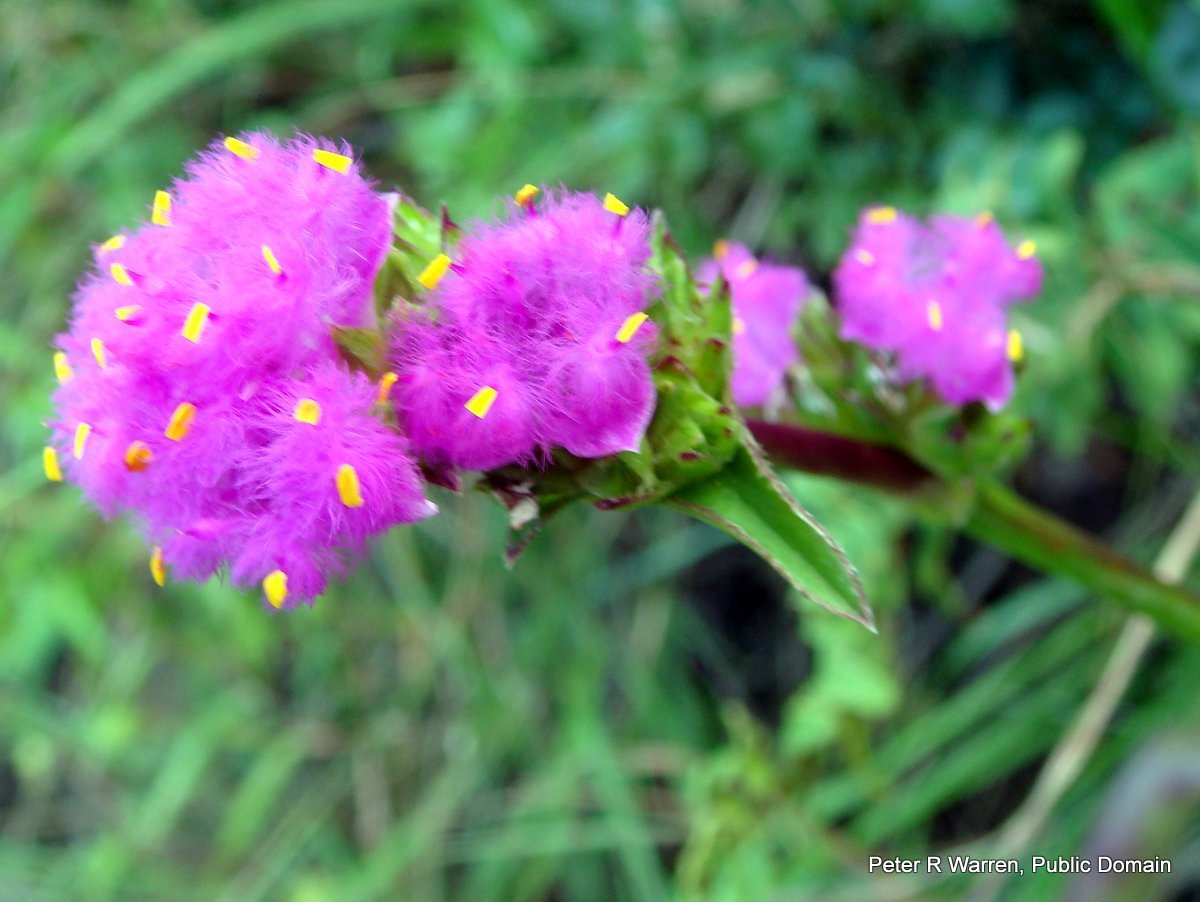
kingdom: Plantae
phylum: Tracheophyta
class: Liliopsida
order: Commelinales
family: Commelinaceae
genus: Cyanotis
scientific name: Cyanotis speciosa
